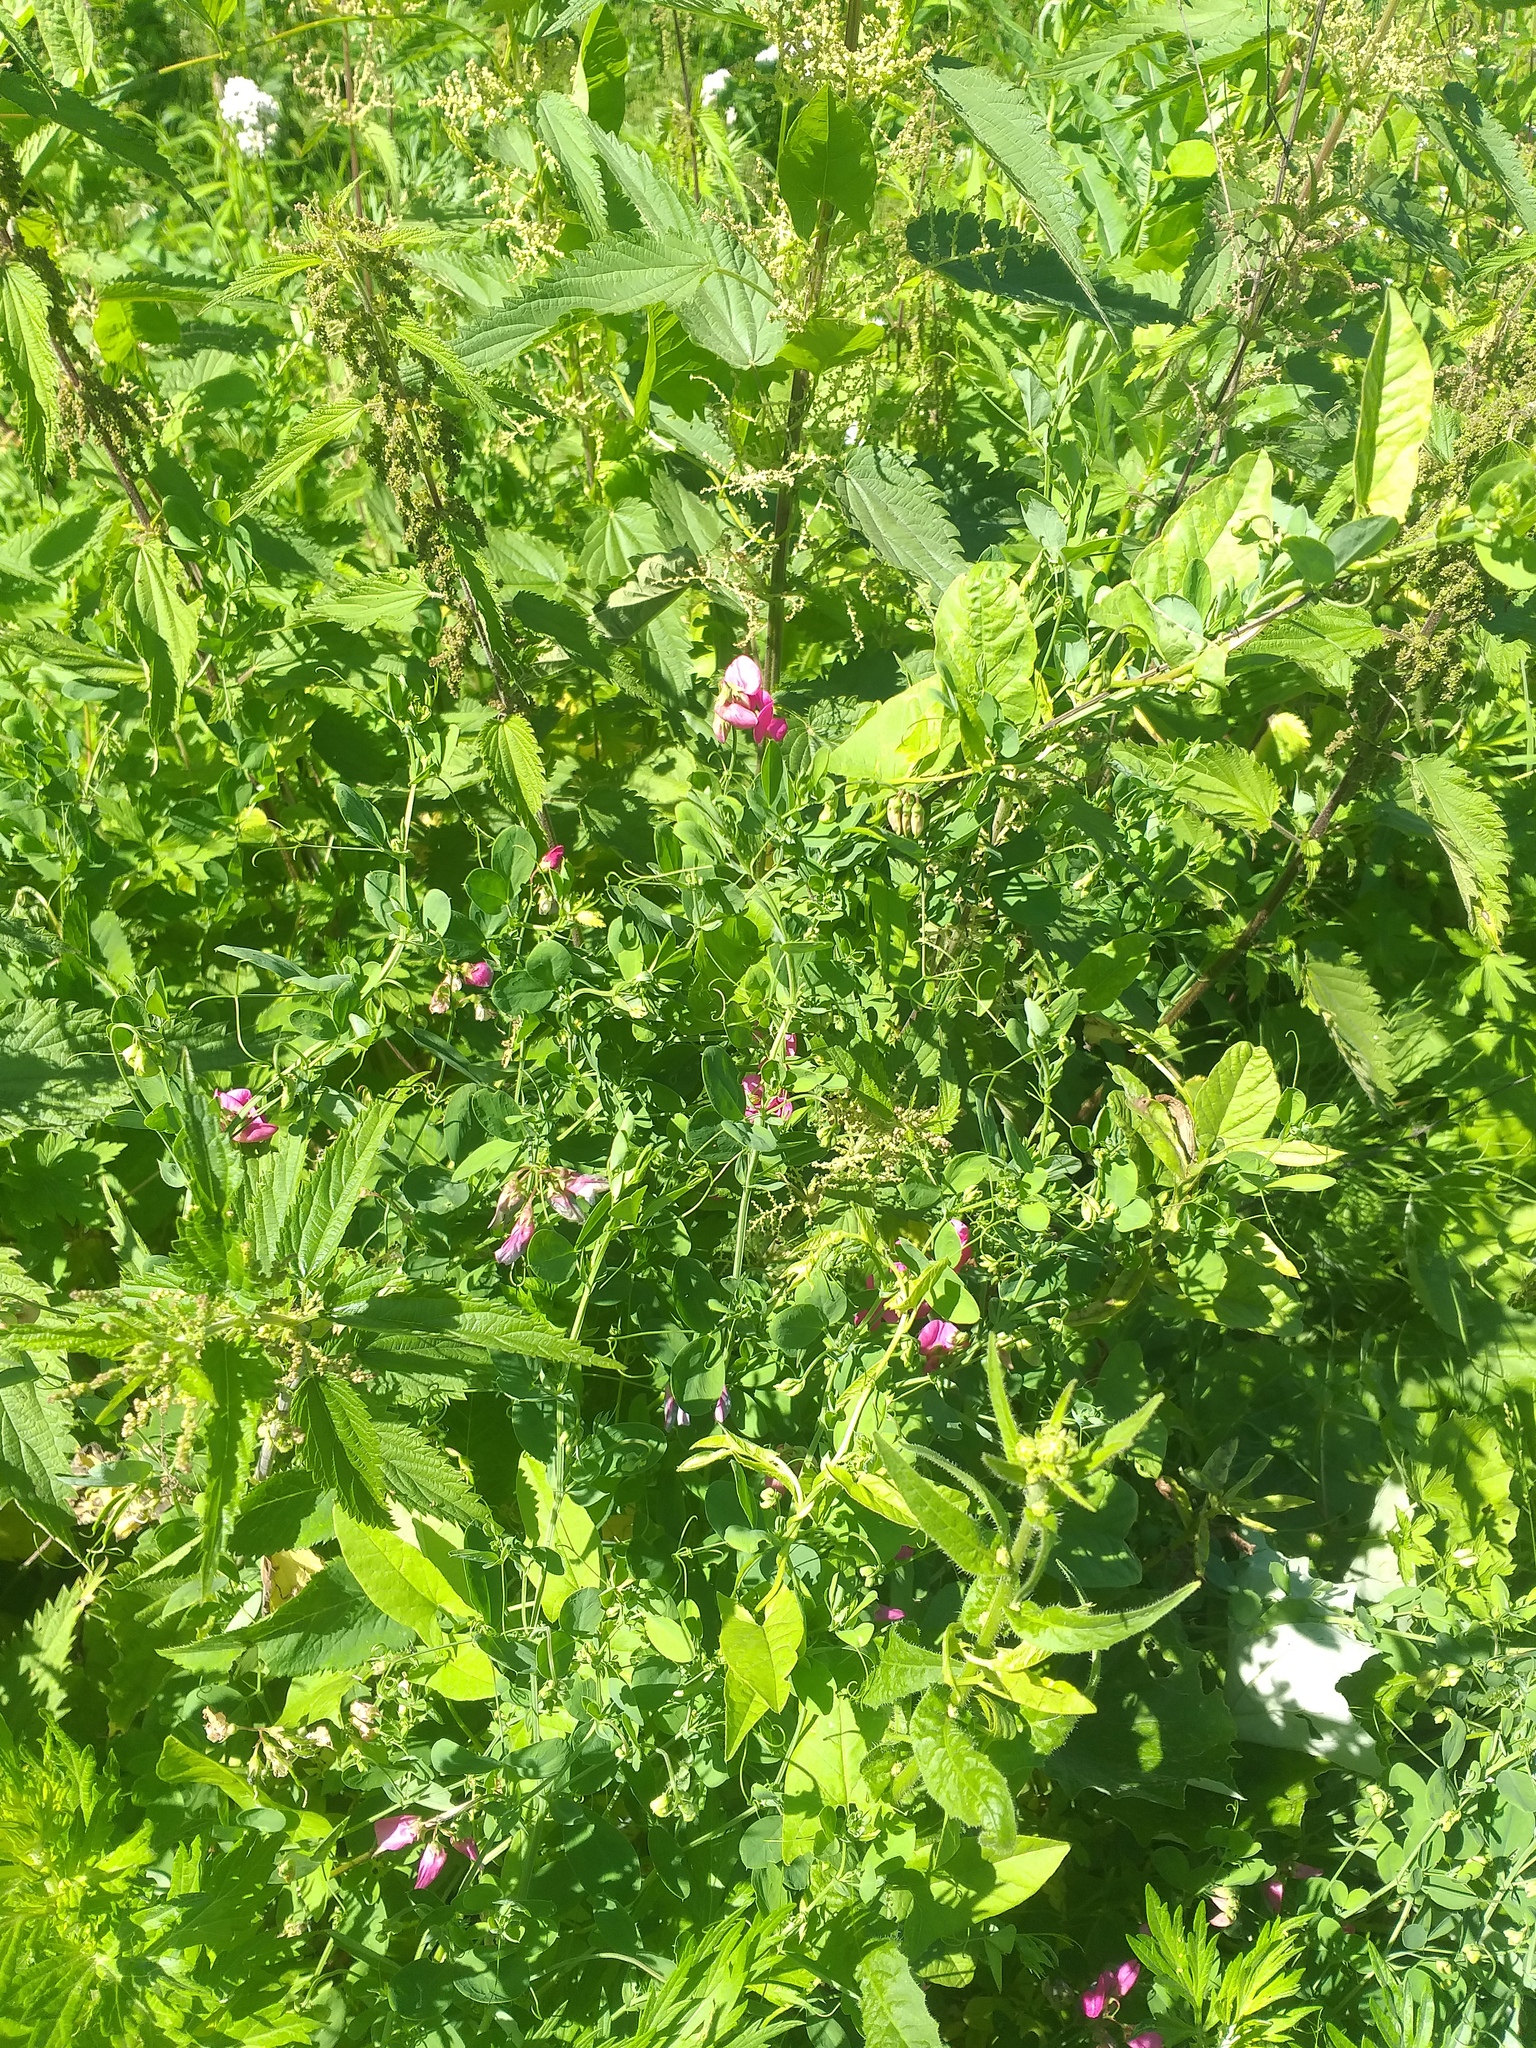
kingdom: Plantae
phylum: Tracheophyta
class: Magnoliopsida
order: Fabales
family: Fabaceae
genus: Lathyrus
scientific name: Lathyrus tuberosus
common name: Tuberous pea
